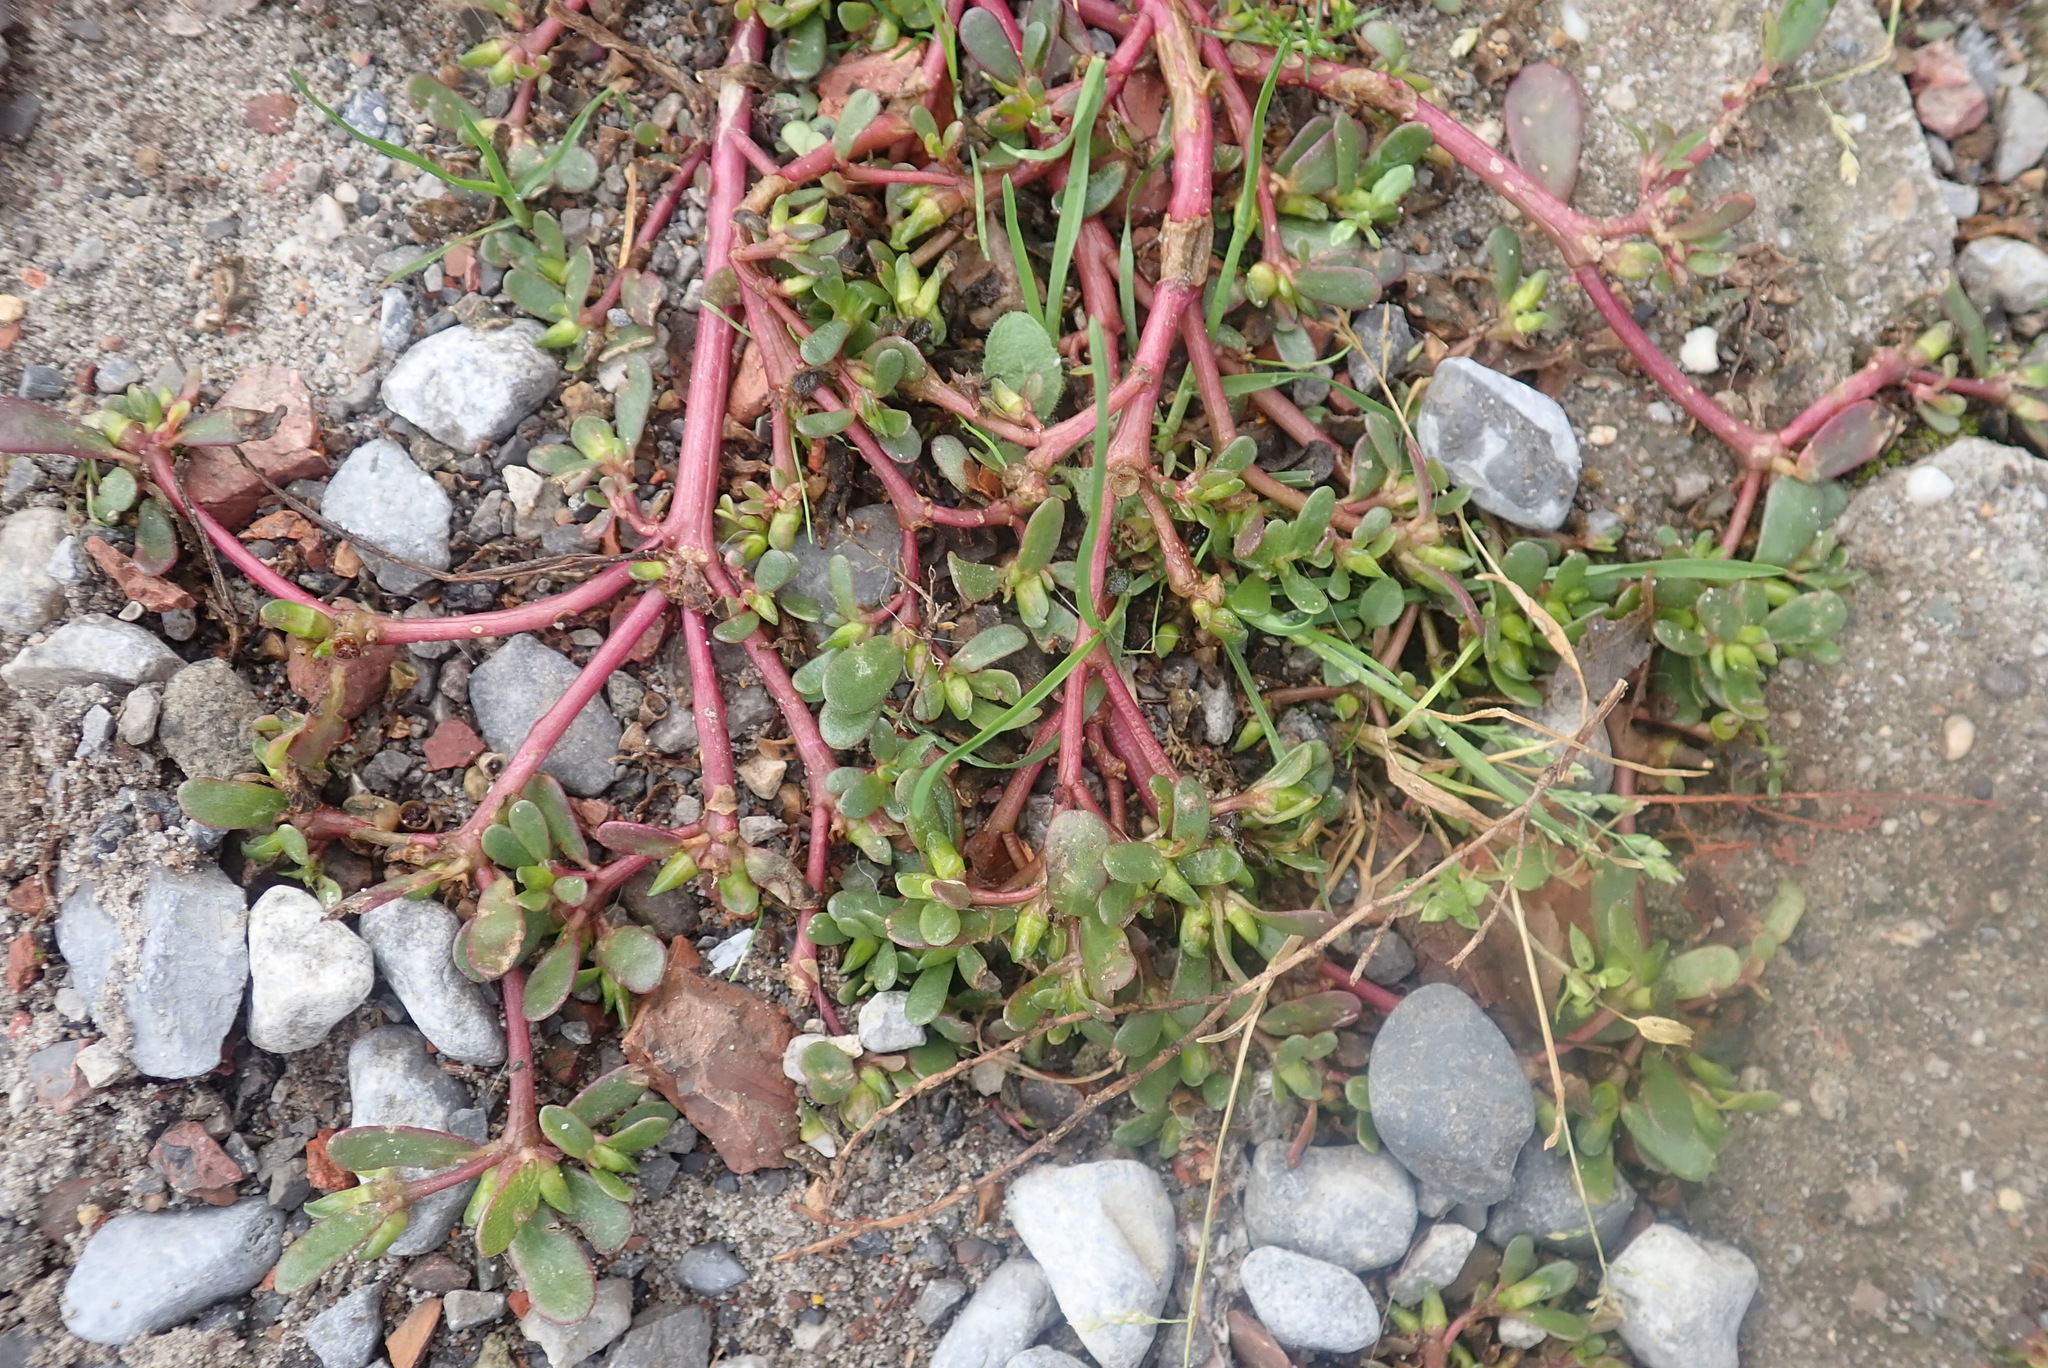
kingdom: Plantae
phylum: Tracheophyta
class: Magnoliopsida
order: Caryophyllales
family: Portulacaceae
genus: Portulaca
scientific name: Portulaca oleracea
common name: Common purslane
